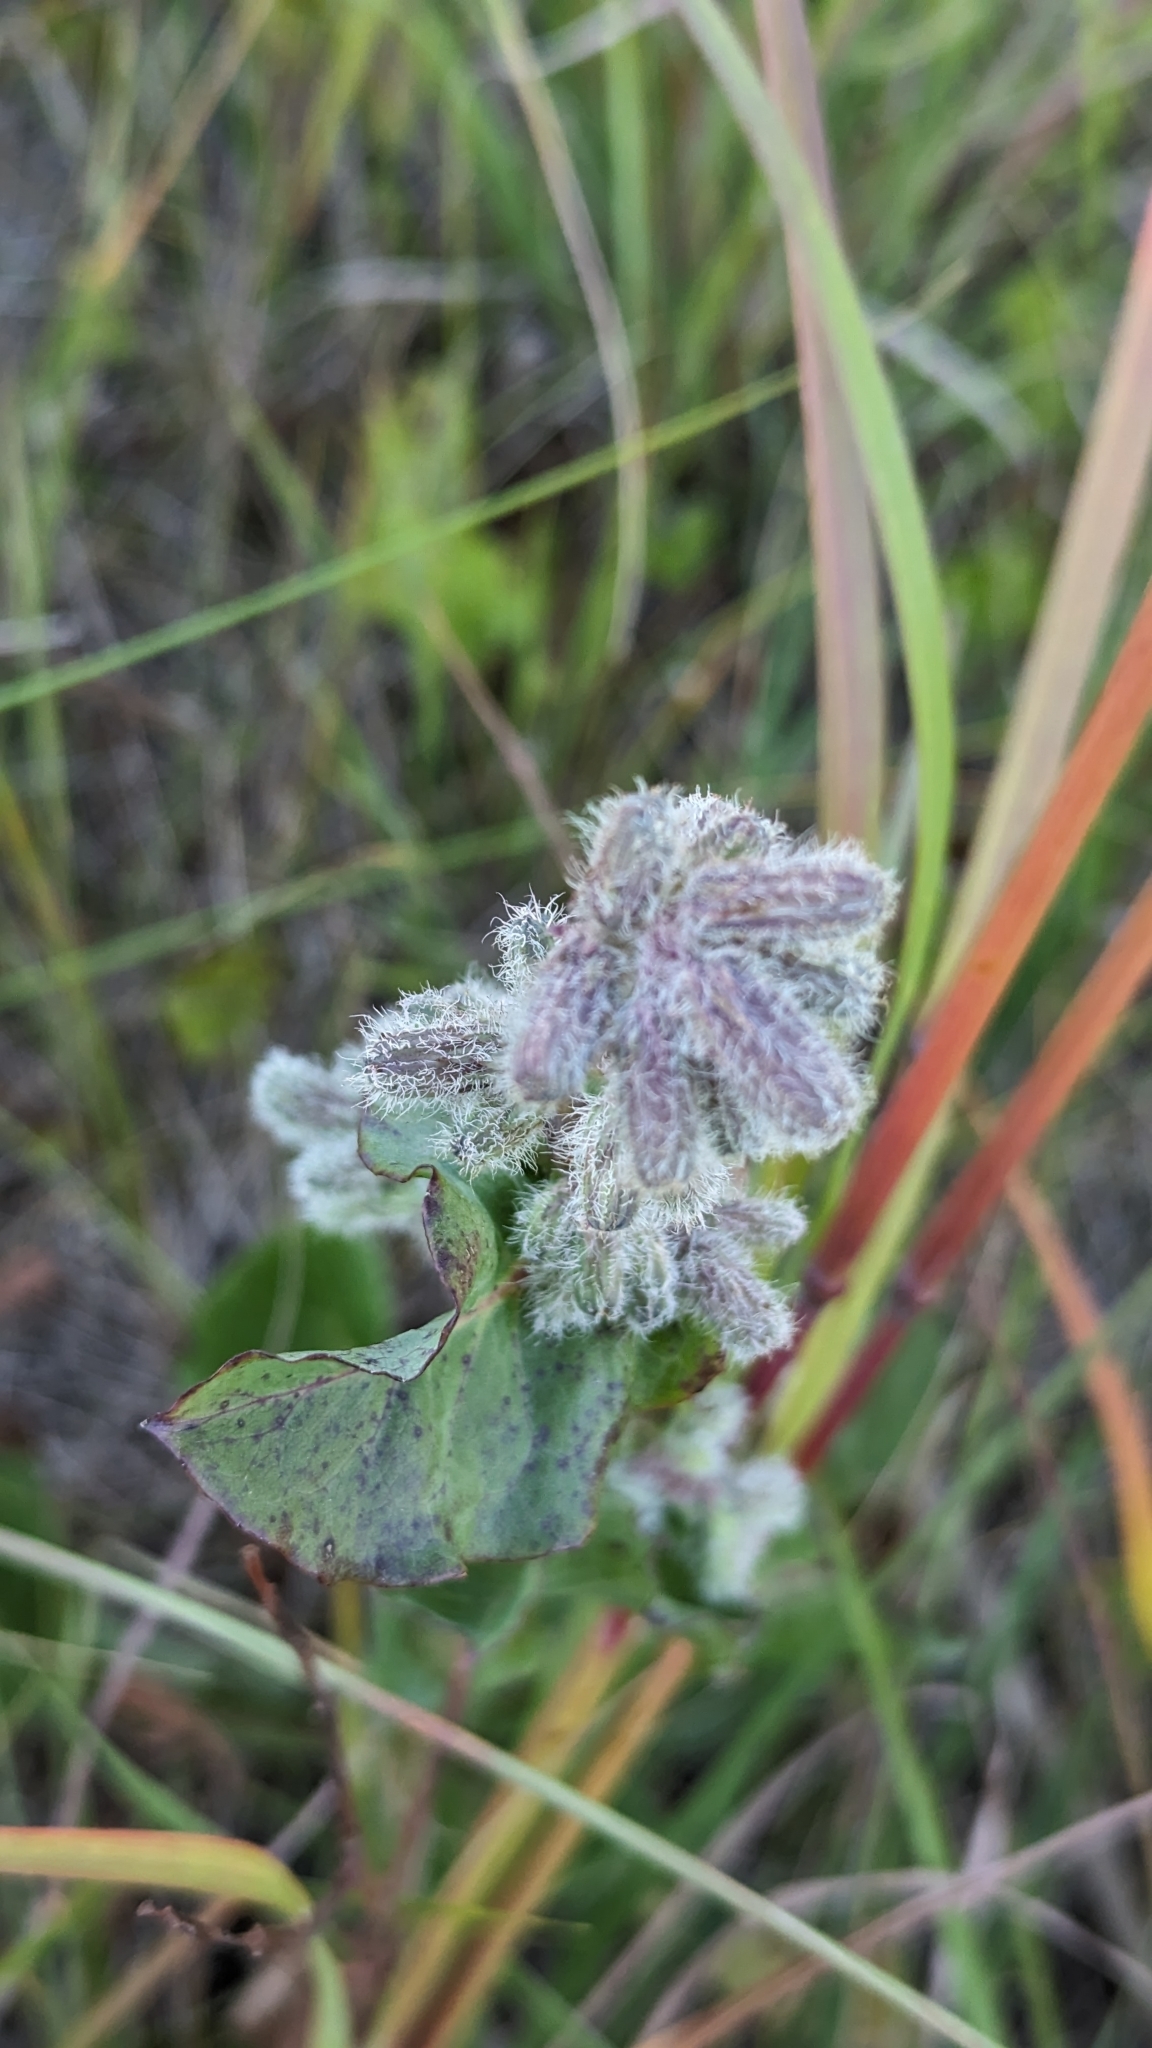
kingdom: Plantae
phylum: Tracheophyta
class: Magnoliopsida
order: Asterales
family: Asteraceae
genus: Nabalus
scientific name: Nabalus racemosus
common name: Glaucous white lettuce
